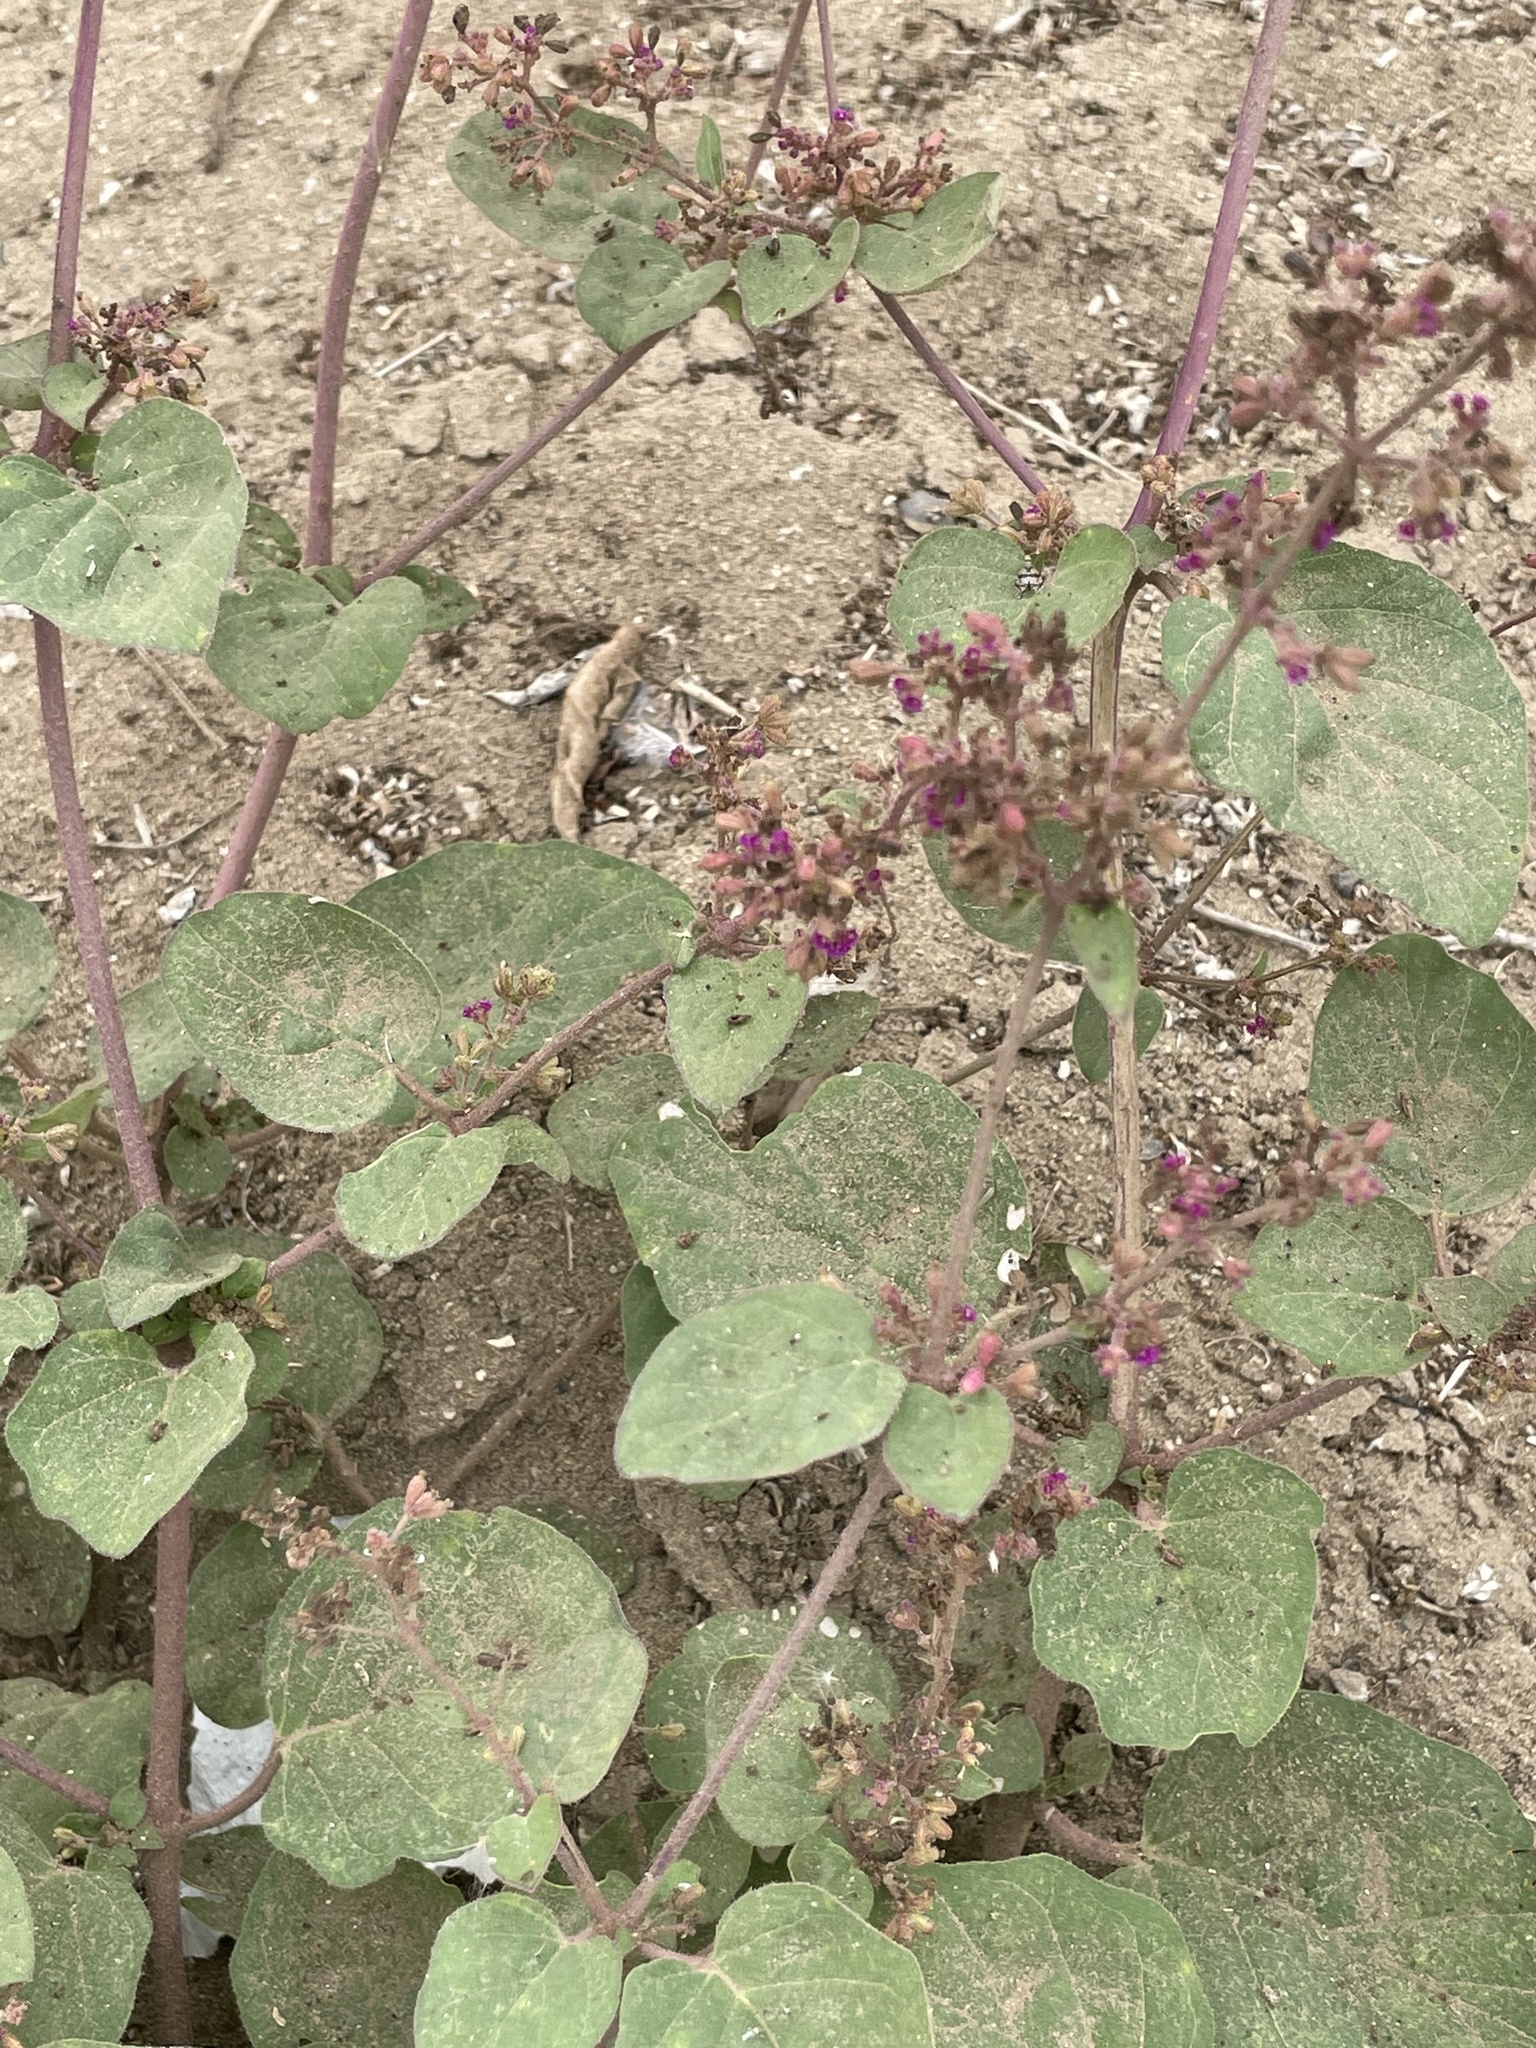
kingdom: Plantae
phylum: Tracheophyta
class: Magnoliopsida
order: Caryophyllales
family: Nyctaginaceae
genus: Boerhavia
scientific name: Boerhavia coccinea
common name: Scarlet spiderling
